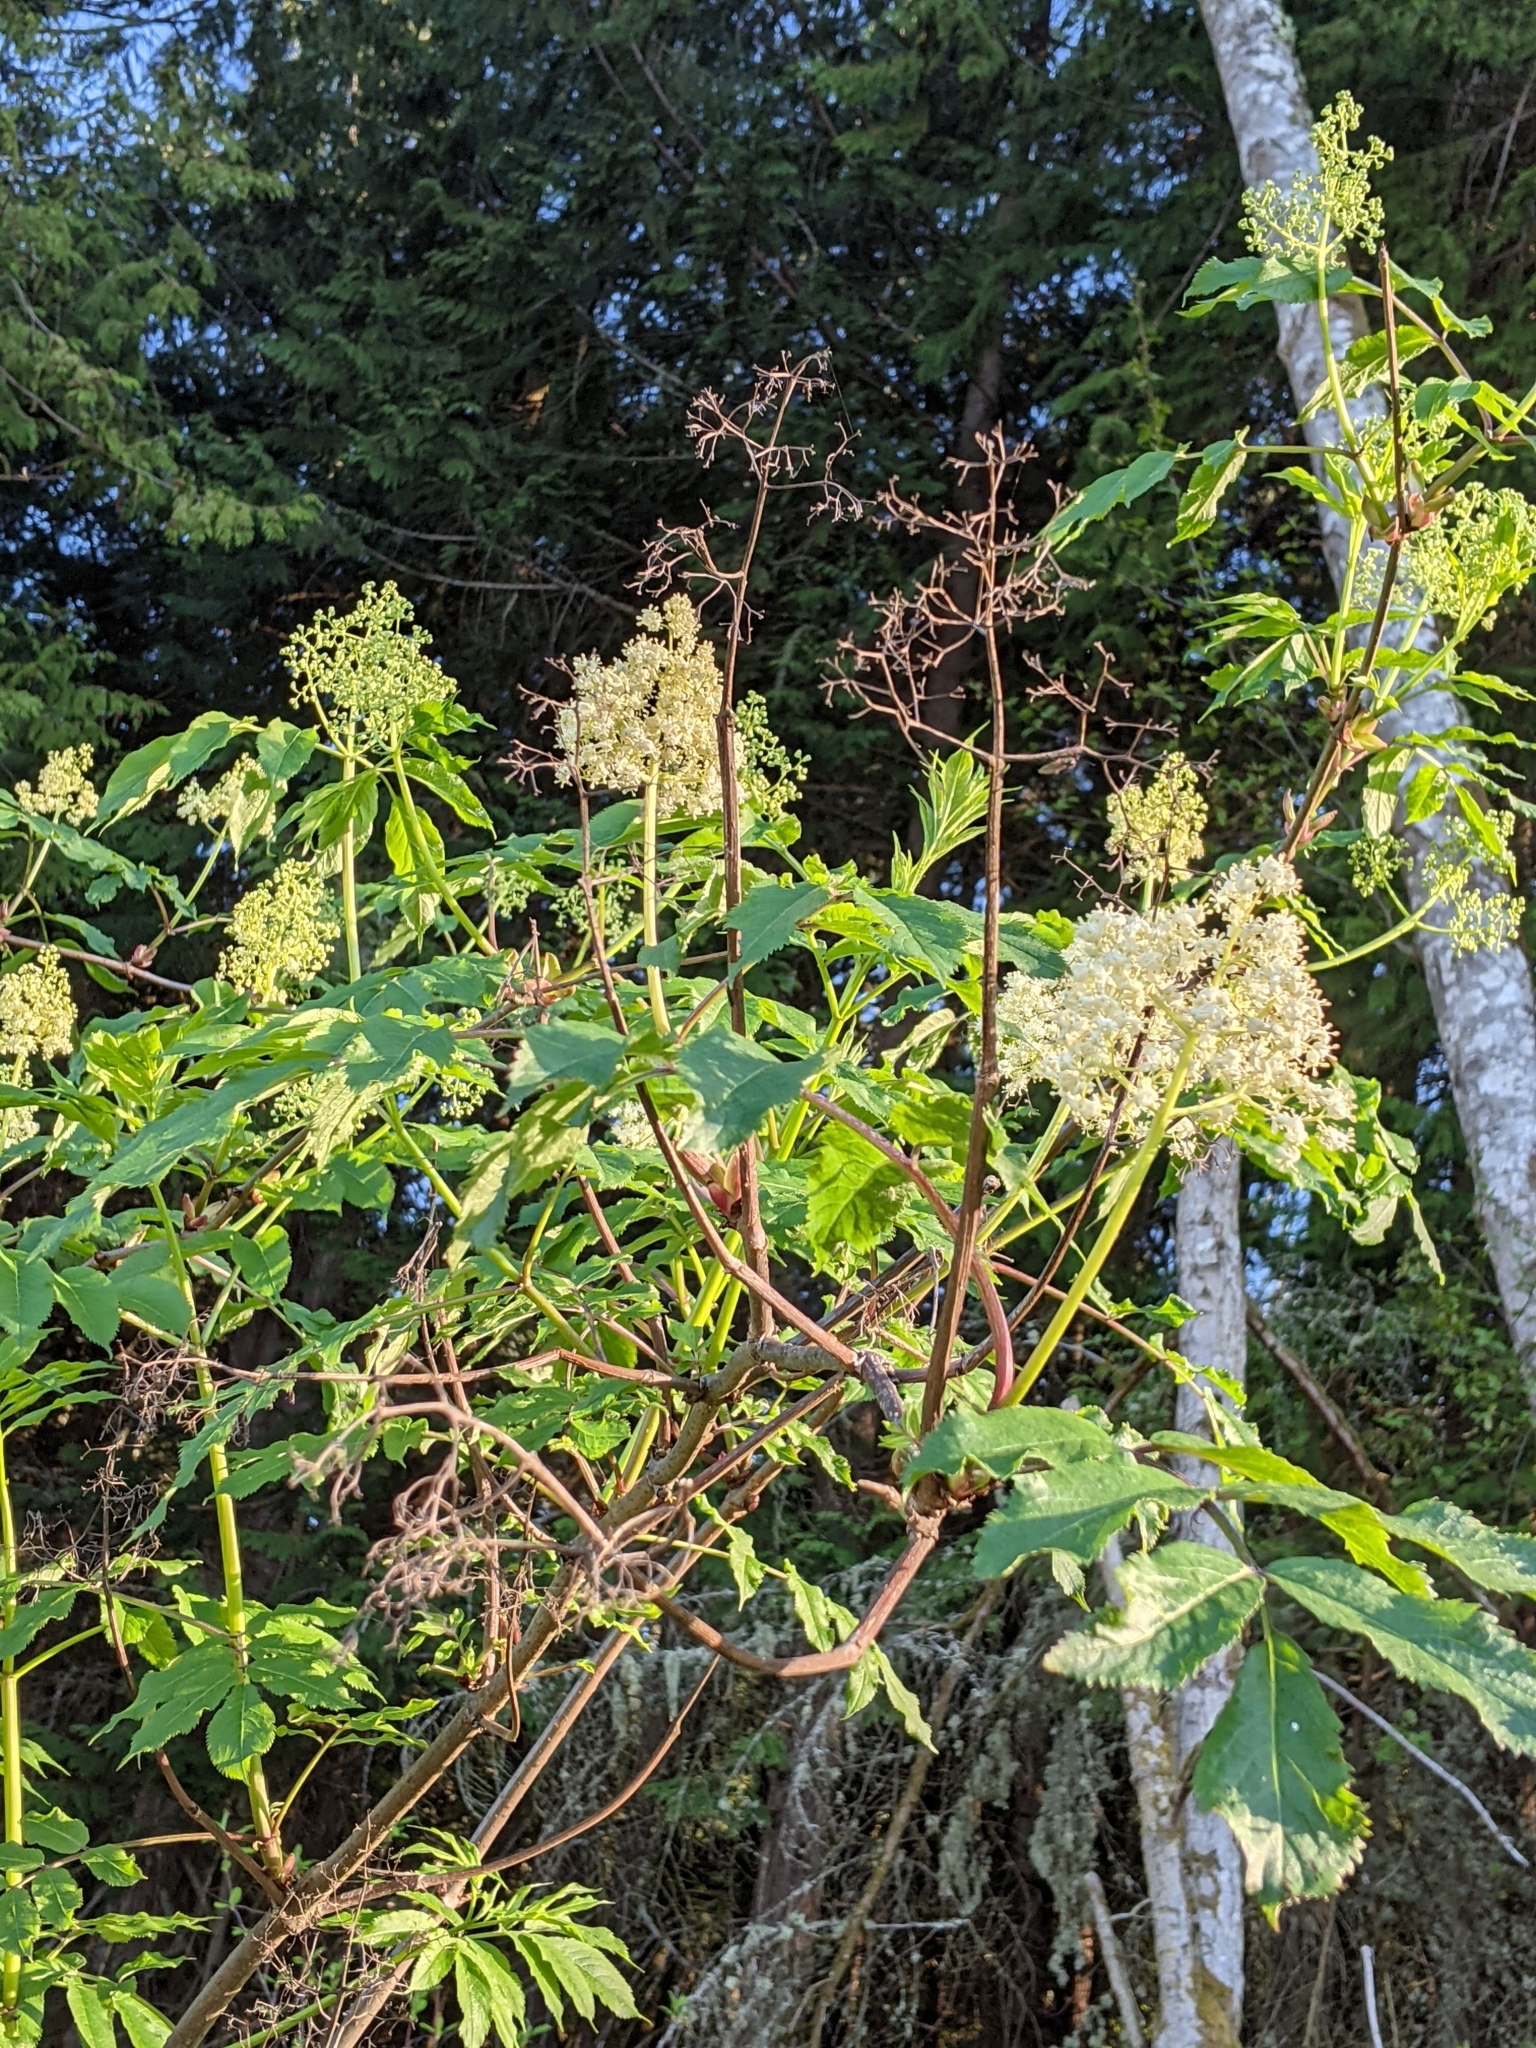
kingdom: Plantae
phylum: Tracheophyta
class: Magnoliopsida
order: Dipsacales
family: Viburnaceae
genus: Sambucus
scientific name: Sambucus racemosa
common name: Red-berried elder
